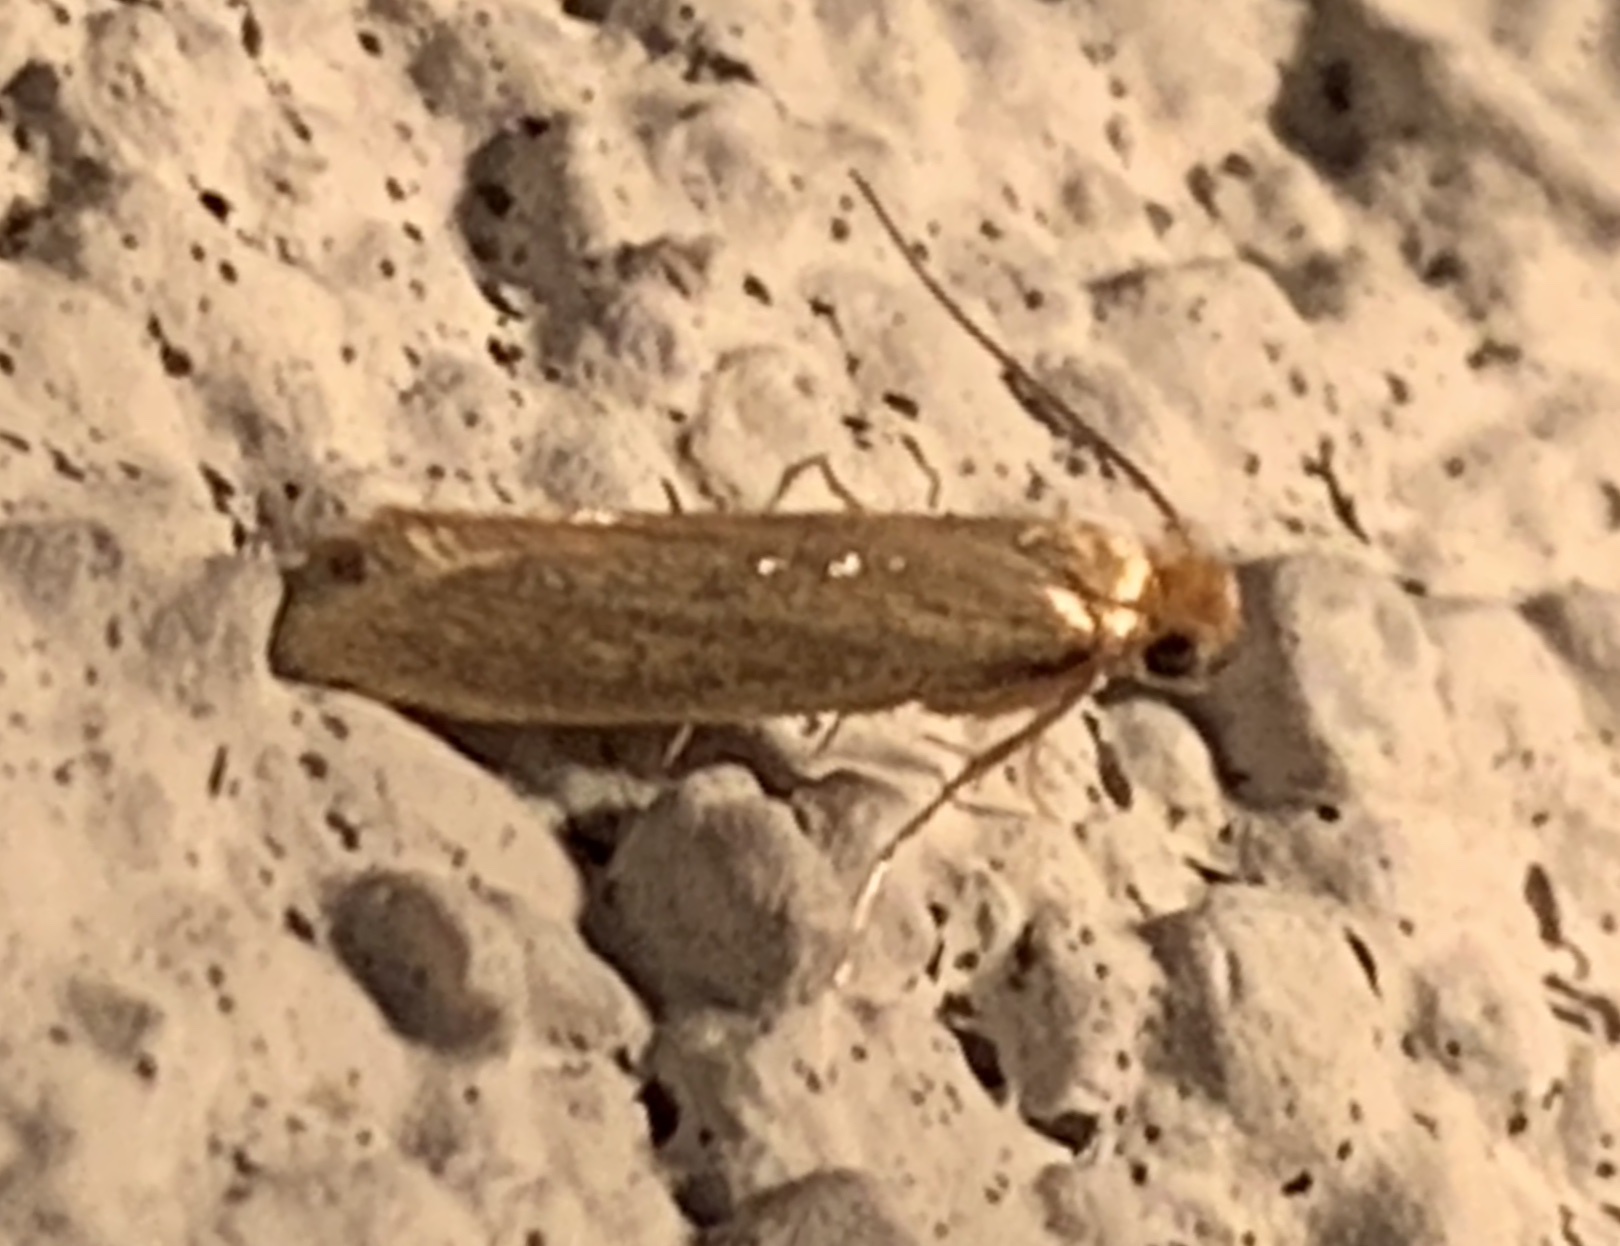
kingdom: Animalia
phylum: Arthropoda
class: Insecta
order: Lepidoptera
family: Tineidae
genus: Tineola
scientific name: Tineola bisselliella
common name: Webbing clothes moth
